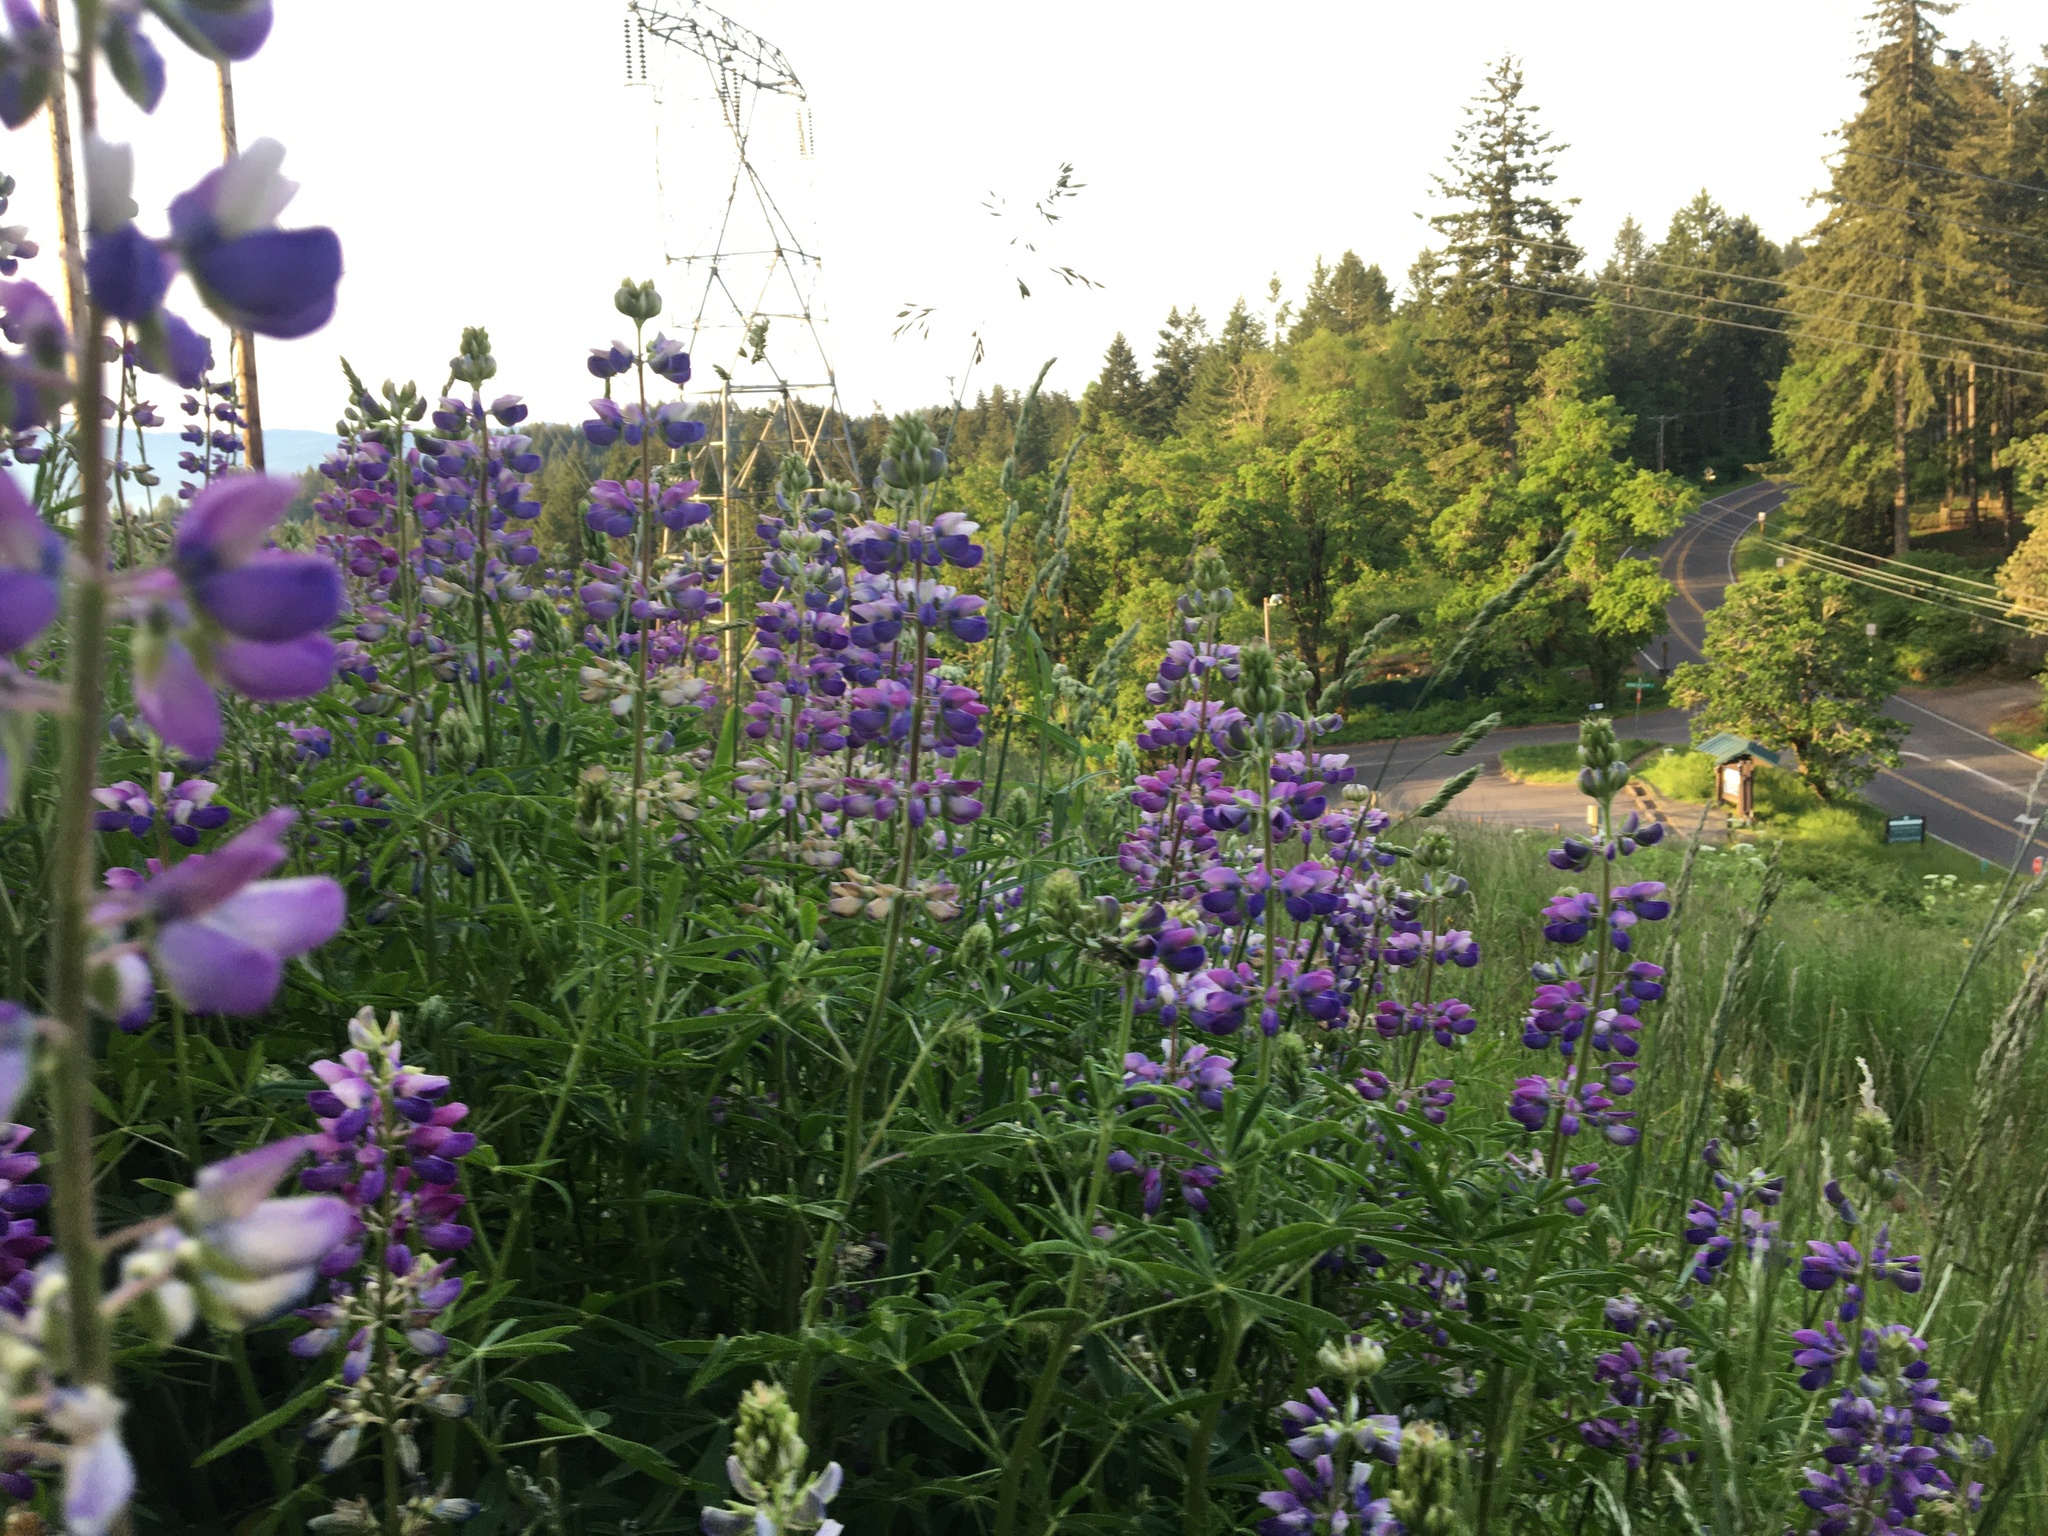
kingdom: Plantae
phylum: Tracheophyta
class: Magnoliopsida
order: Fabales
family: Fabaceae
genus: Lupinus
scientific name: Lupinus rivularis
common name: Riverbank lupine
